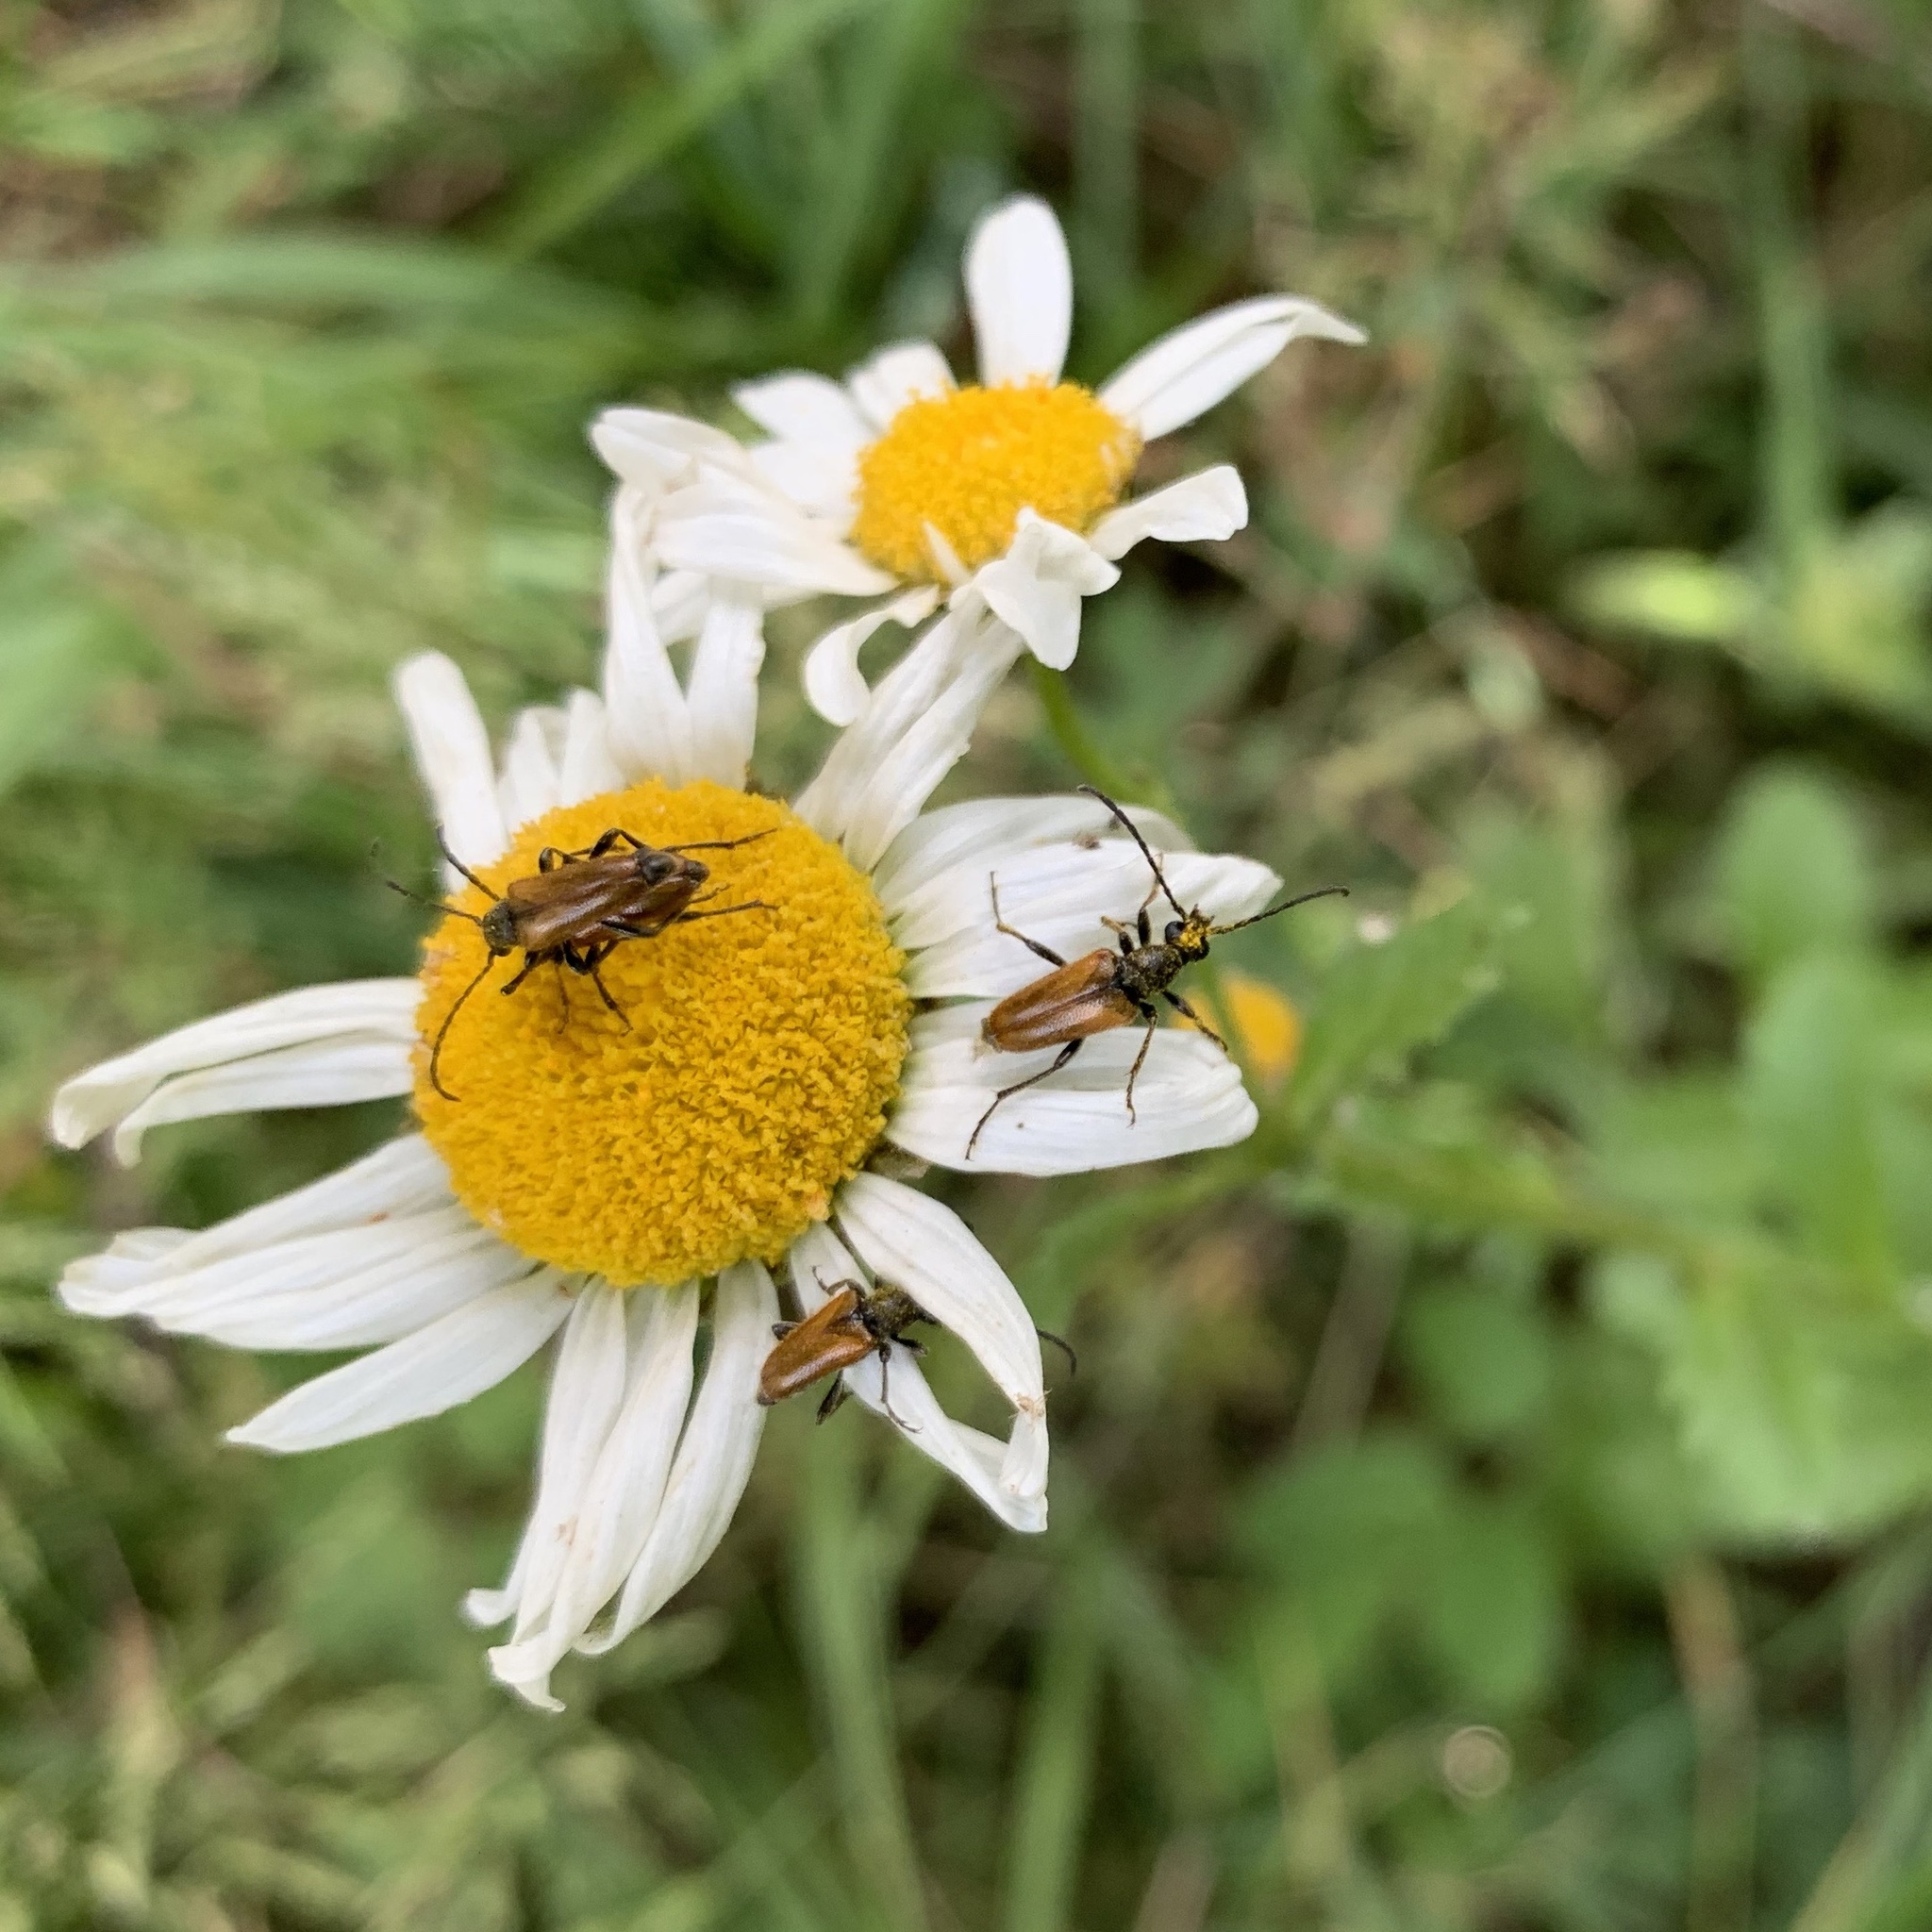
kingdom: Animalia
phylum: Arthropoda
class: Insecta
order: Coleoptera
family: Cerambycidae
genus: Pseudovadonia
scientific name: Pseudovadonia livida
